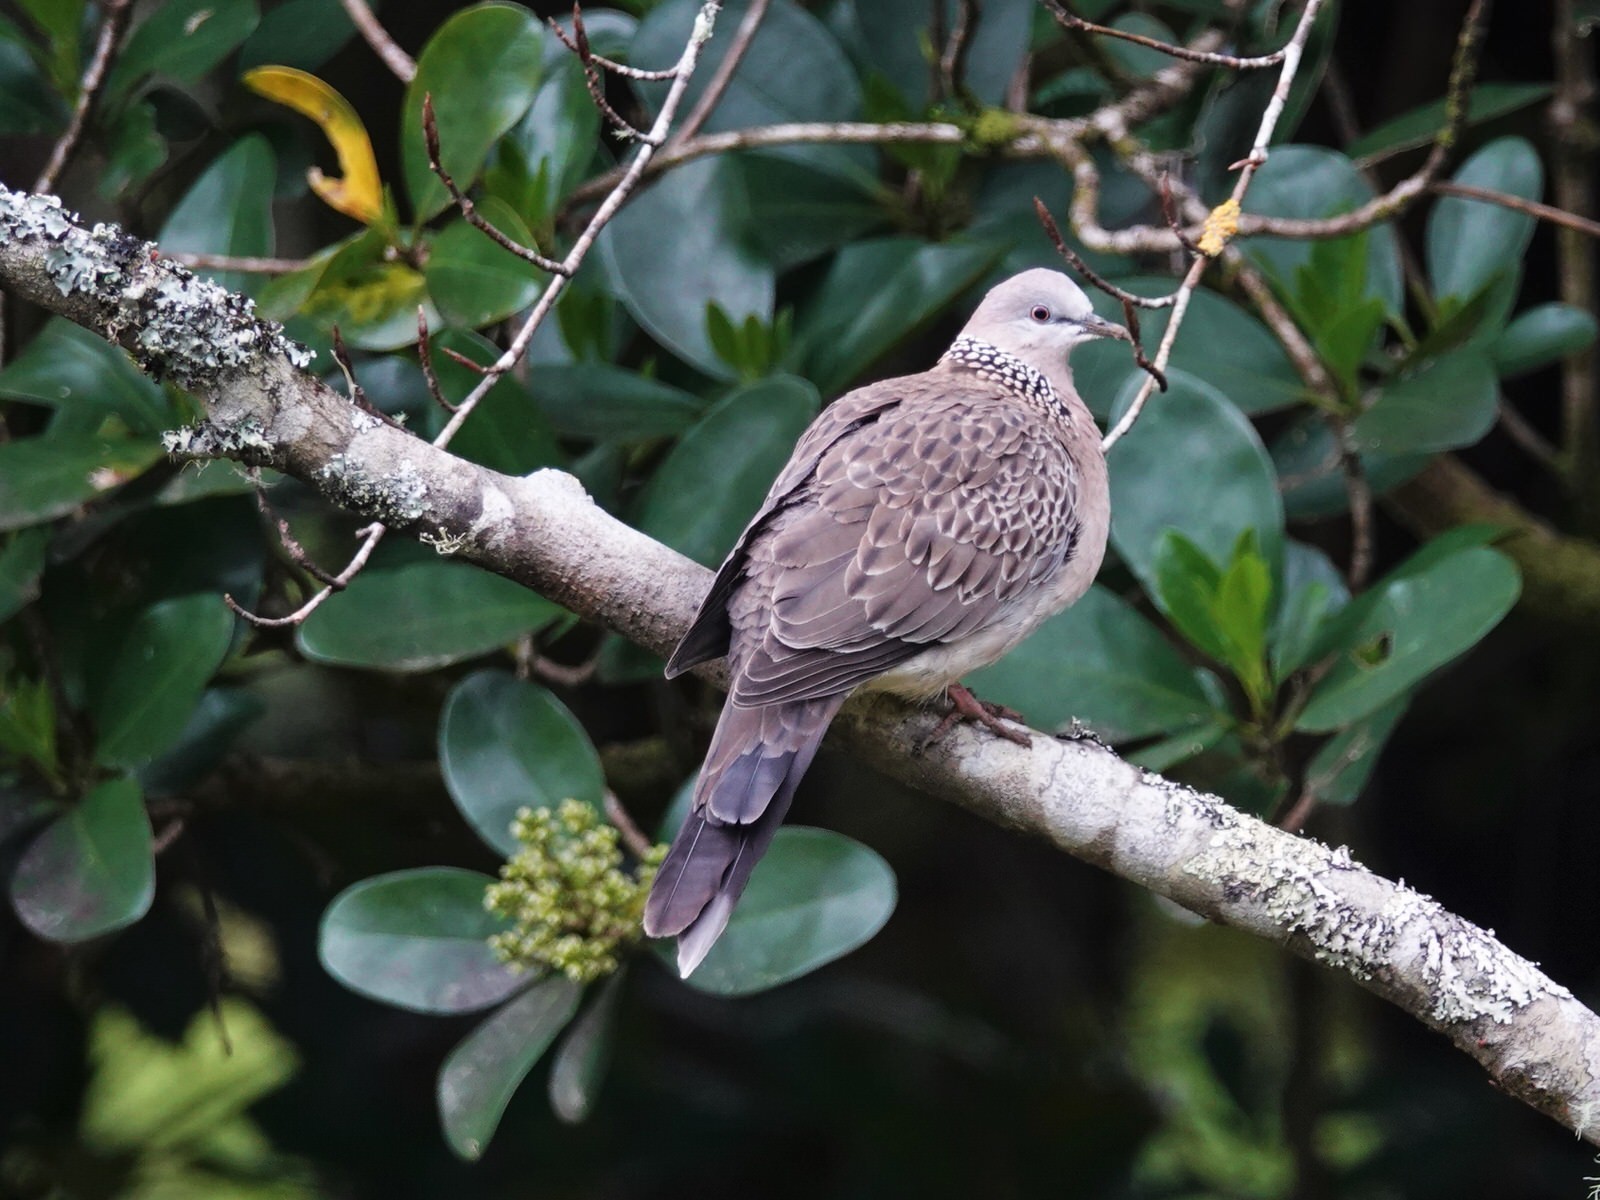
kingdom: Animalia
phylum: Chordata
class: Aves
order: Columbiformes
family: Columbidae
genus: Spilopelia
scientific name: Spilopelia chinensis
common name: Spotted dove
